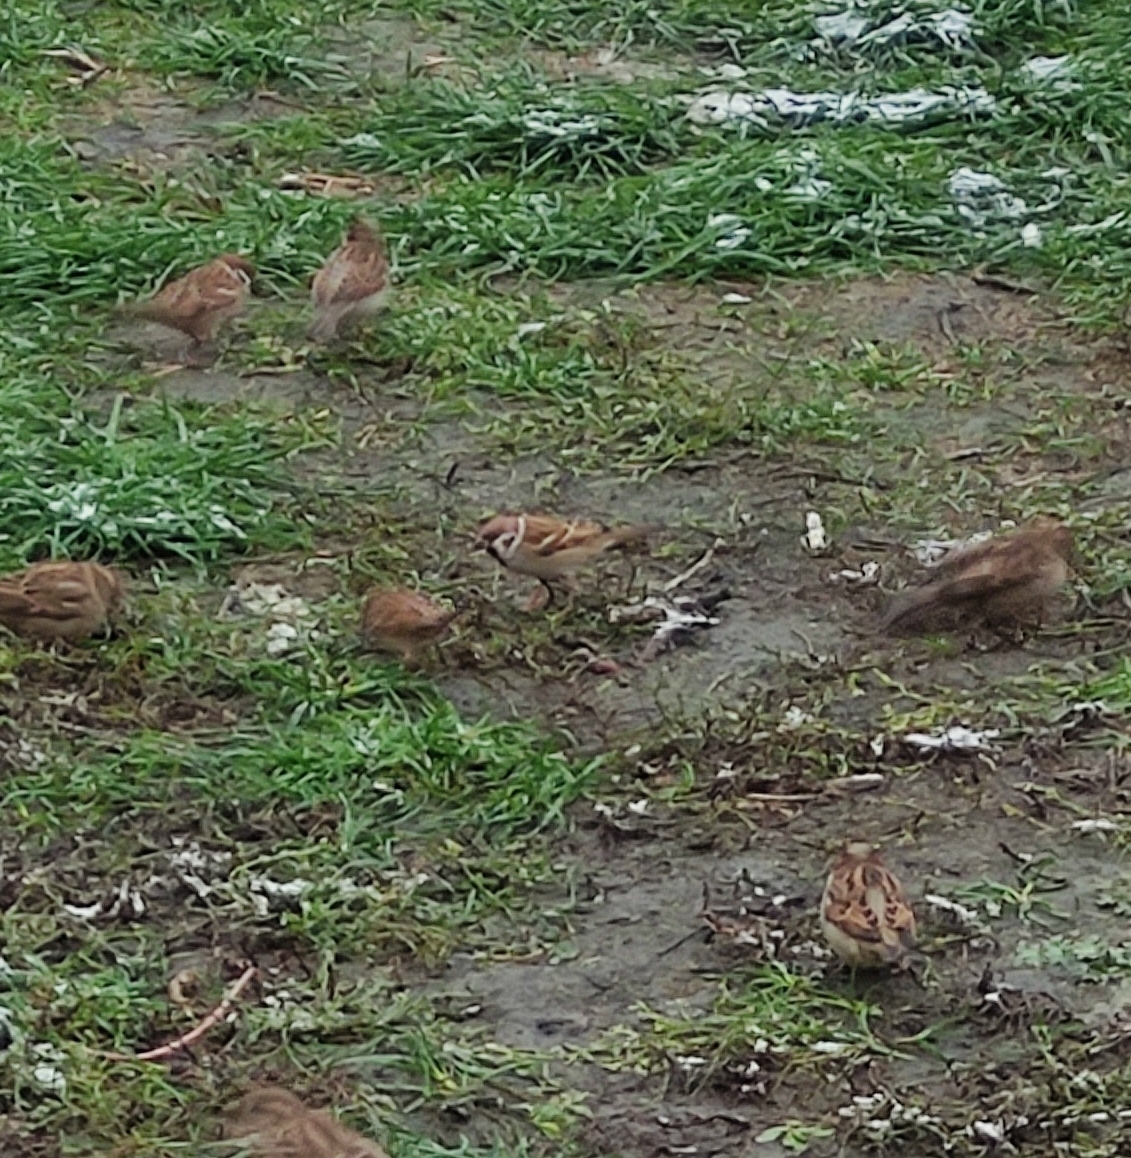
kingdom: Animalia
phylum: Chordata
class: Aves
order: Passeriformes
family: Passeridae
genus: Passer
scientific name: Passer montanus
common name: Eurasian tree sparrow
